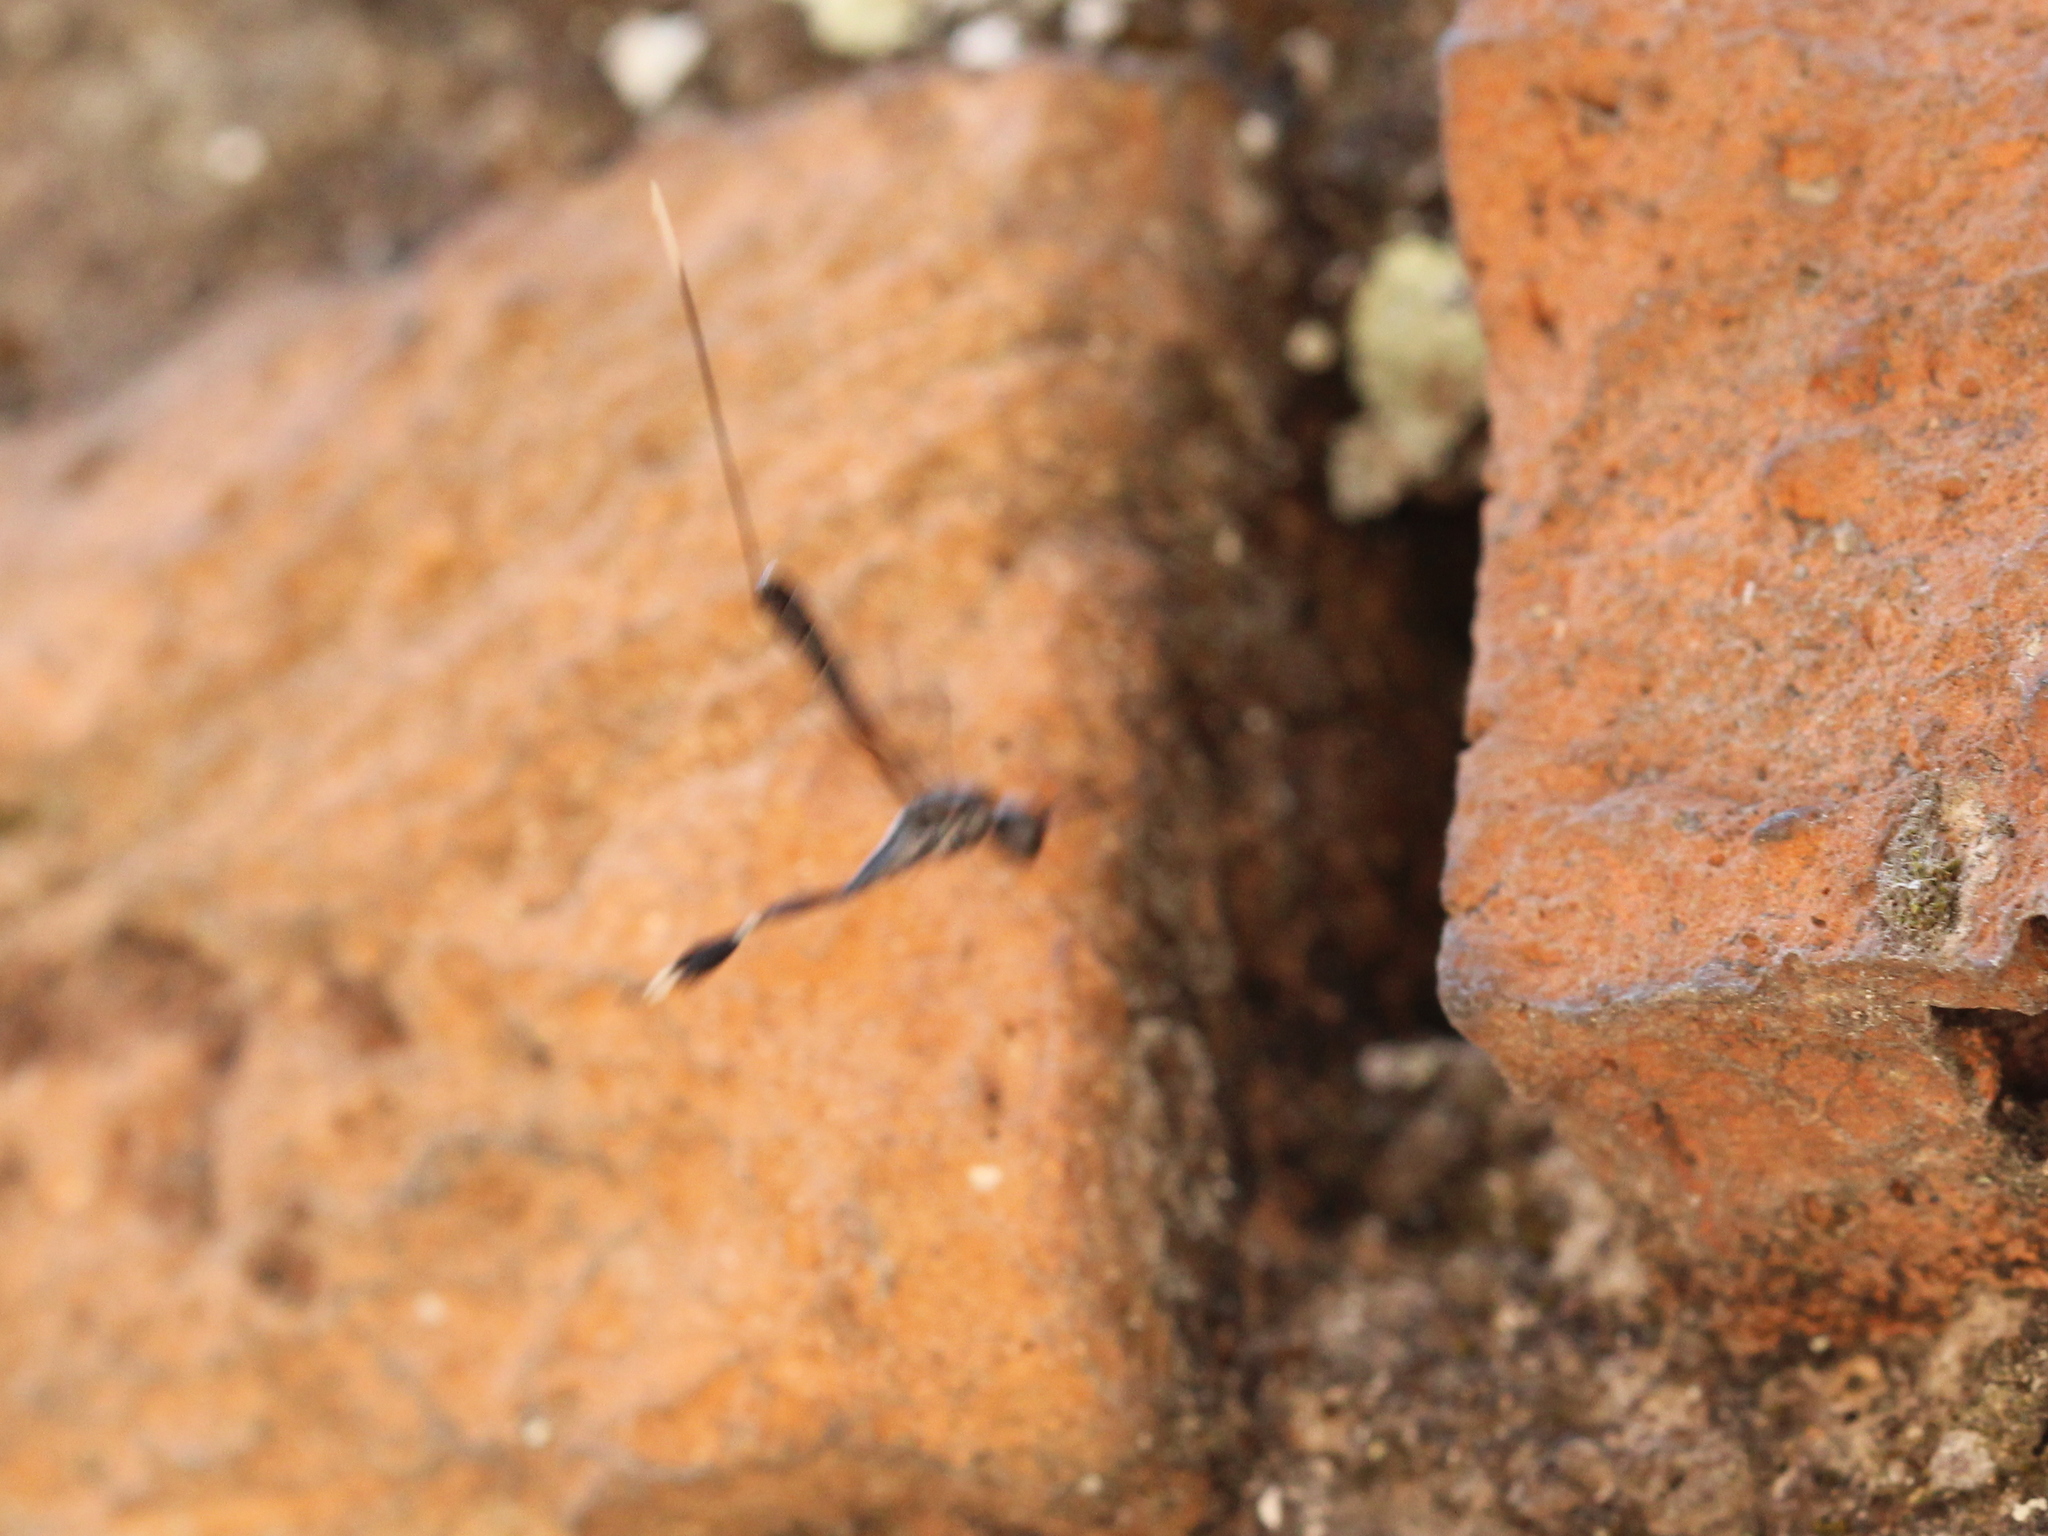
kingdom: Animalia
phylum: Arthropoda
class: Insecta
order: Hymenoptera
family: Gasteruptiidae
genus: Gasteruption
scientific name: Gasteruption
